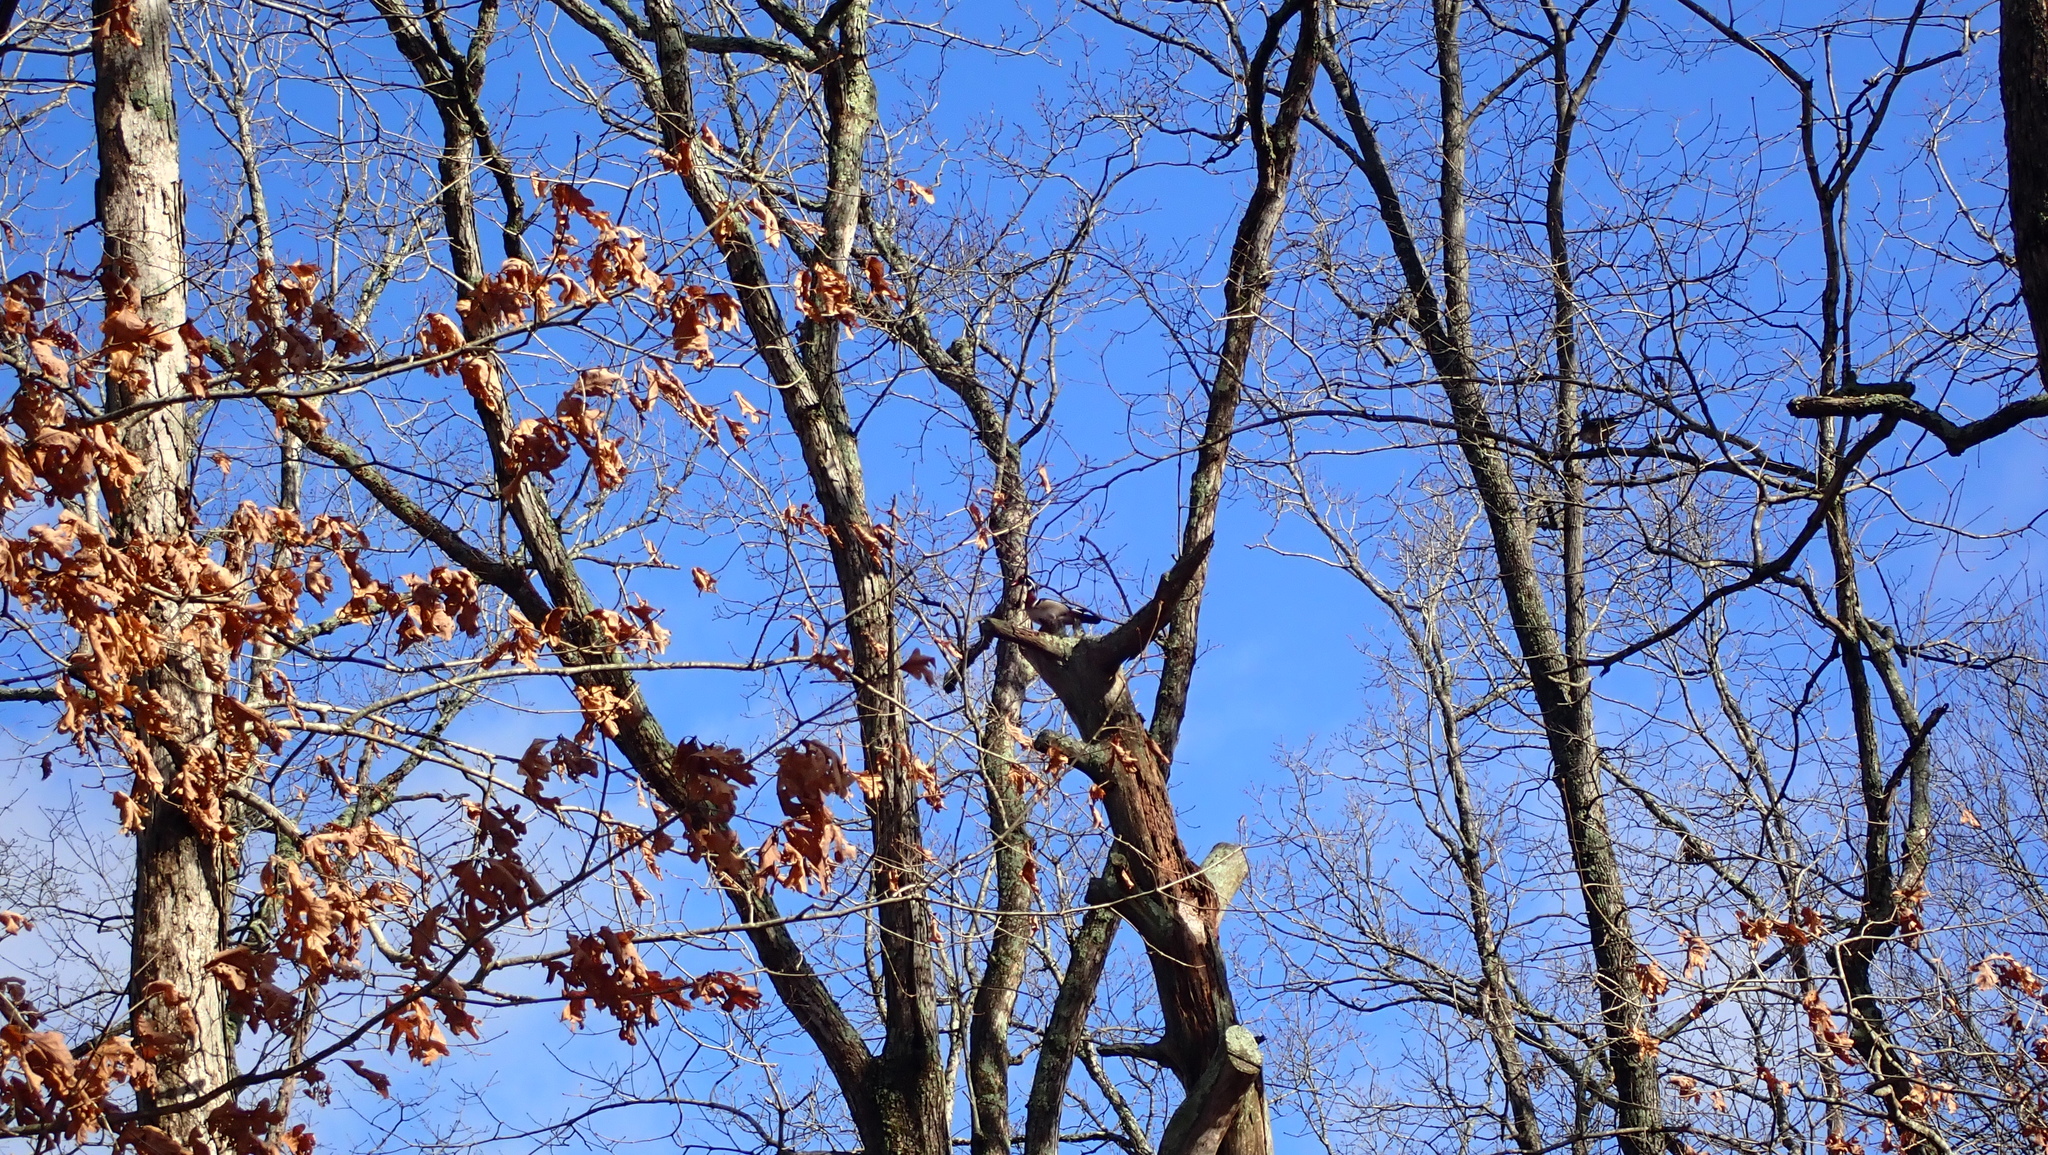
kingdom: Animalia
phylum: Chordata
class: Aves
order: Anseriformes
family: Anatidae
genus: Aix
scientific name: Aix sponsa
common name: Wood duck
